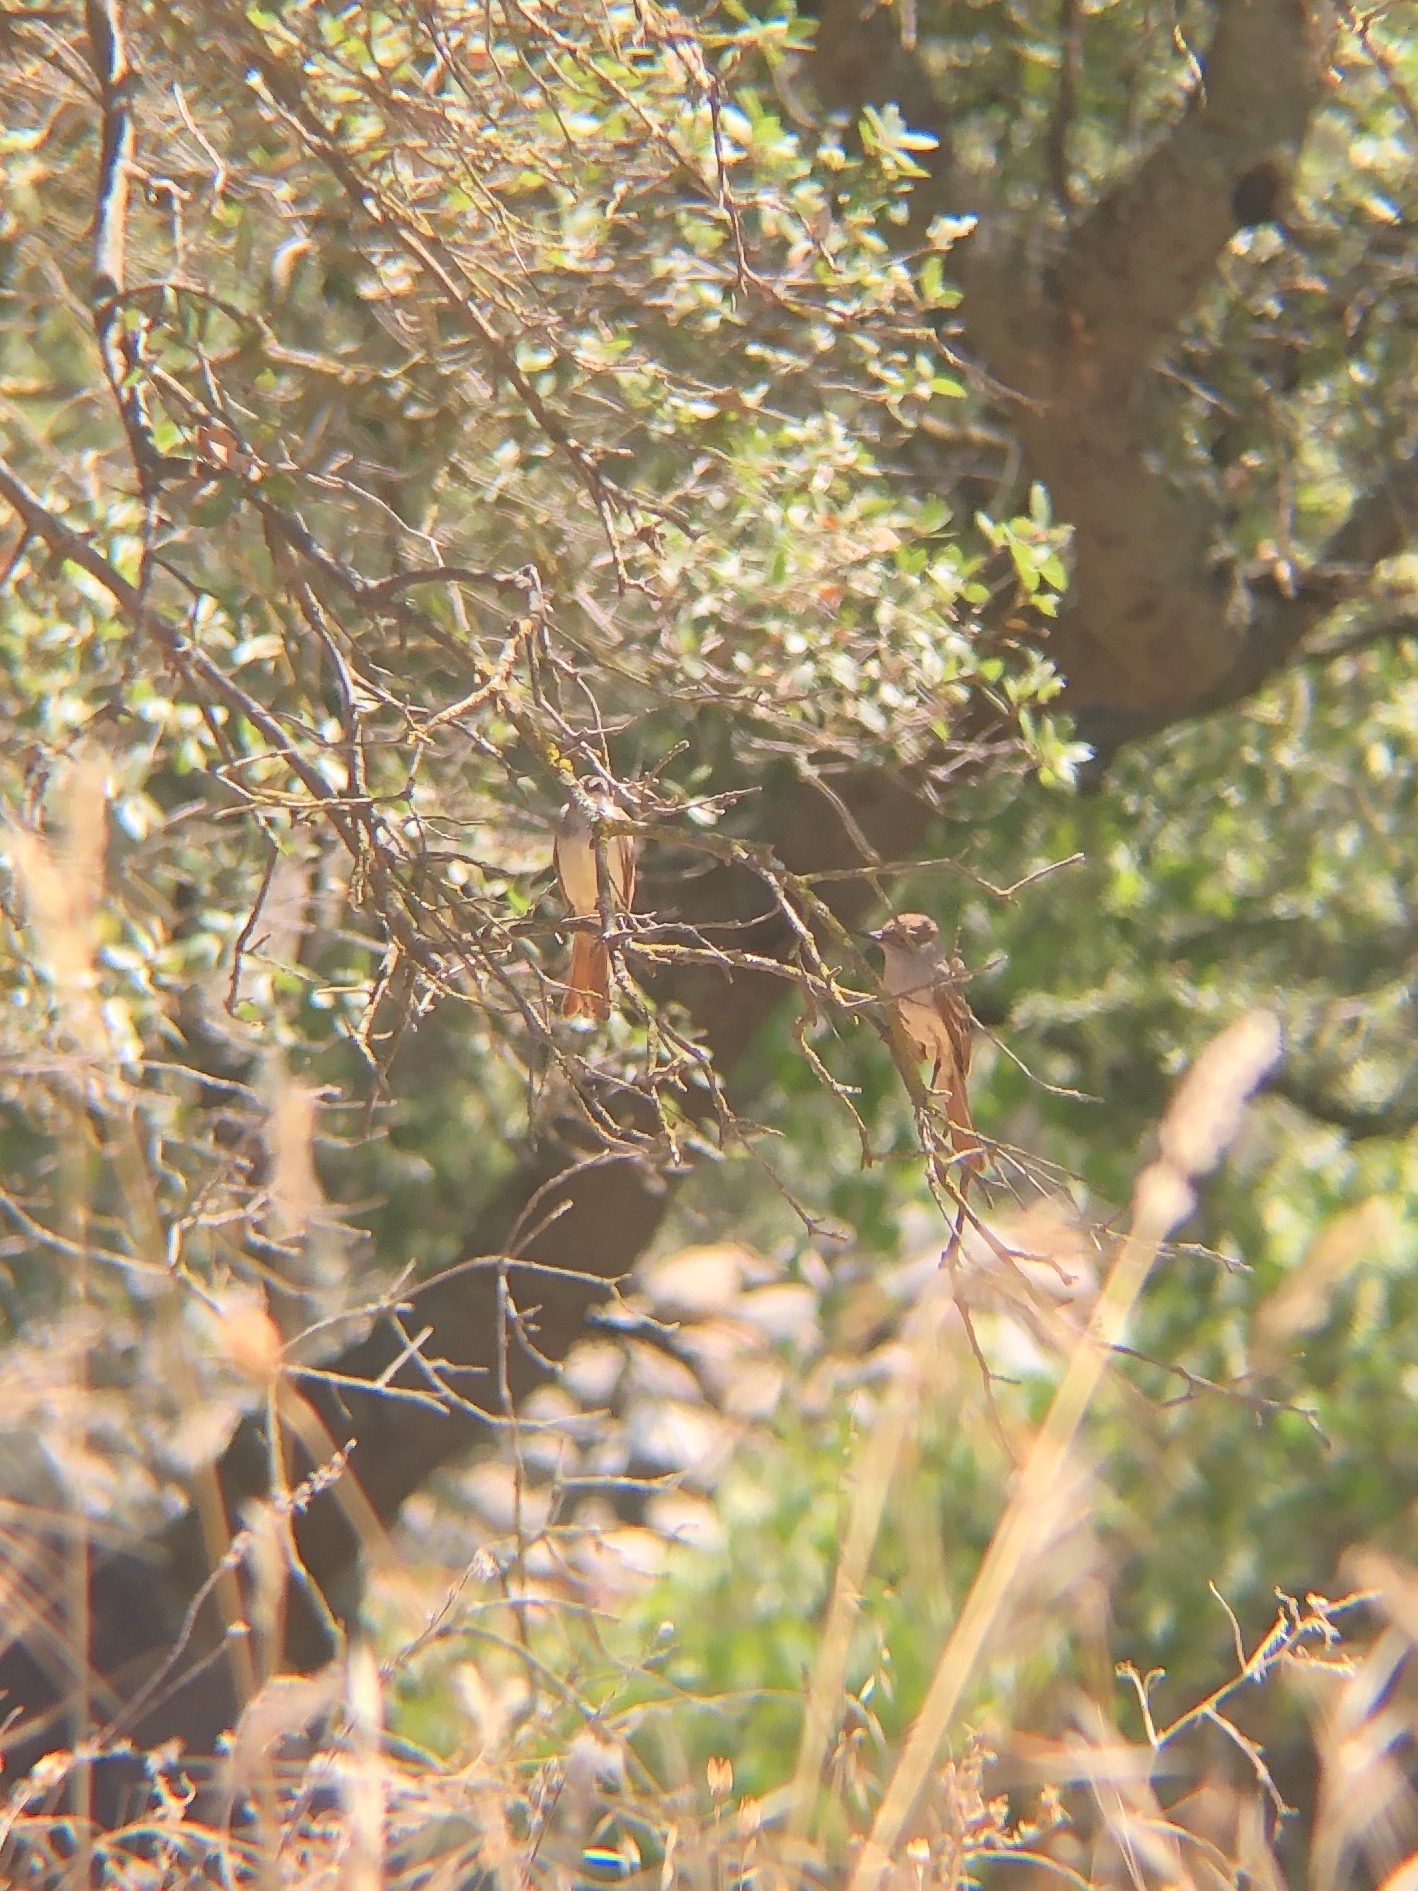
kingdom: Animalia
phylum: Chordata
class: Aves
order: Passeriformes
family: Tyrannidae
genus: Myiarchus
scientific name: Myiarchus cinerascens
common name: Ash-throated flycatcher
